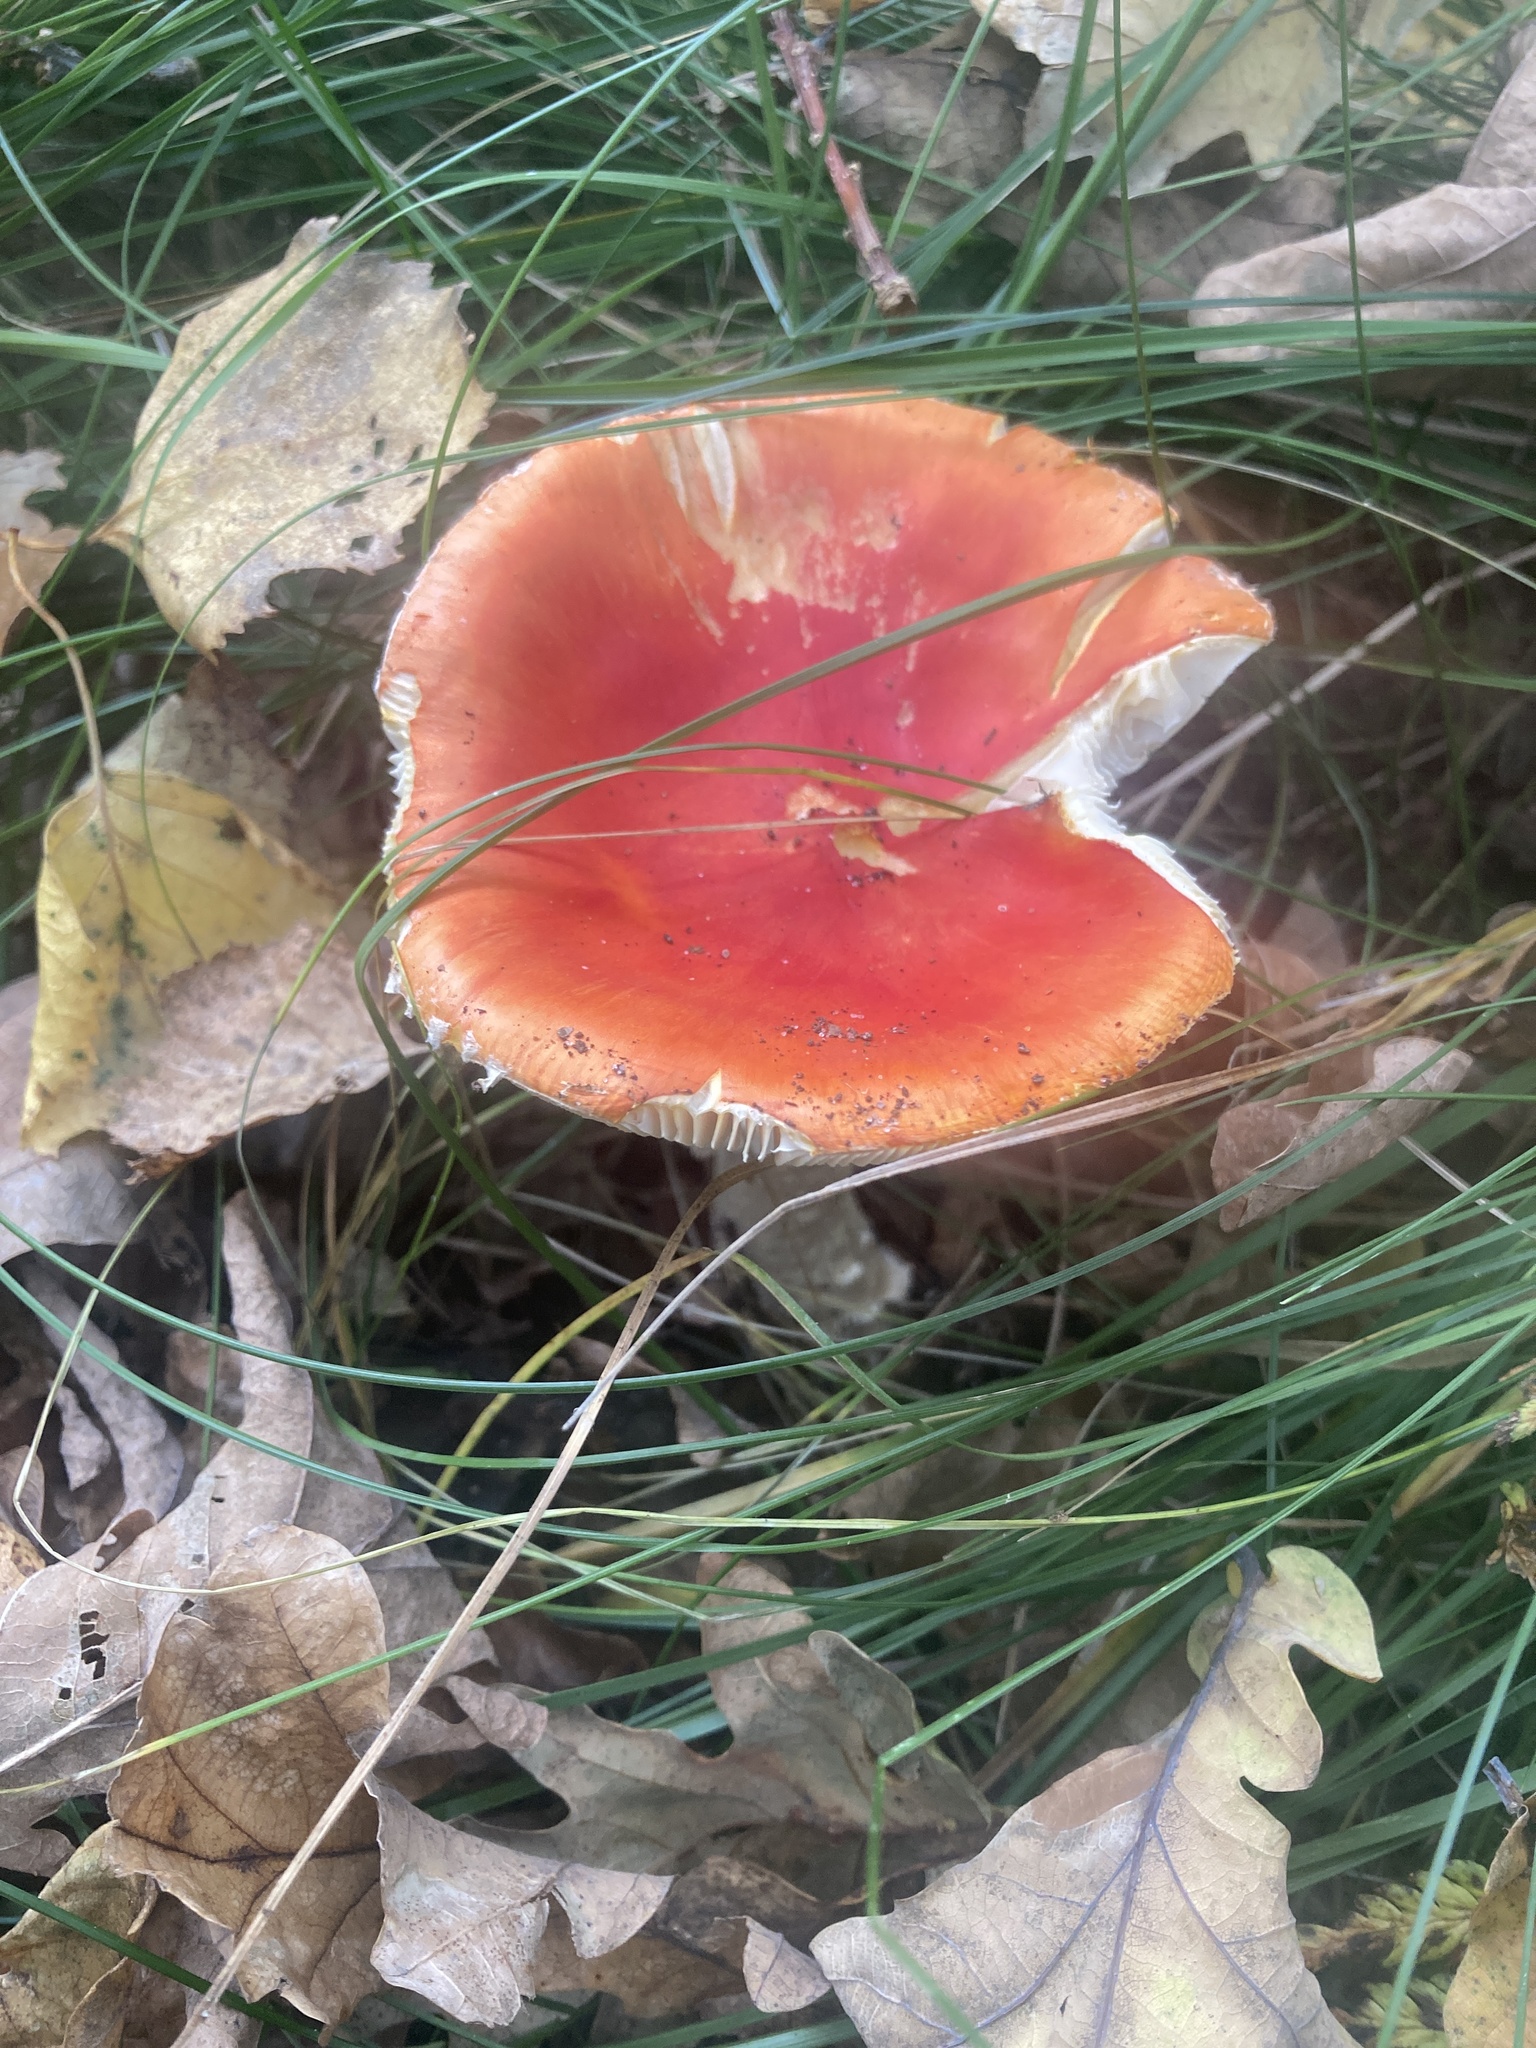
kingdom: Fungi
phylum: Basidiomycota
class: Agaricomycetes
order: Agaricales
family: Amanitaceae
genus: Amanita
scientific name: Amanita muscaria
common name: Fly agaric
